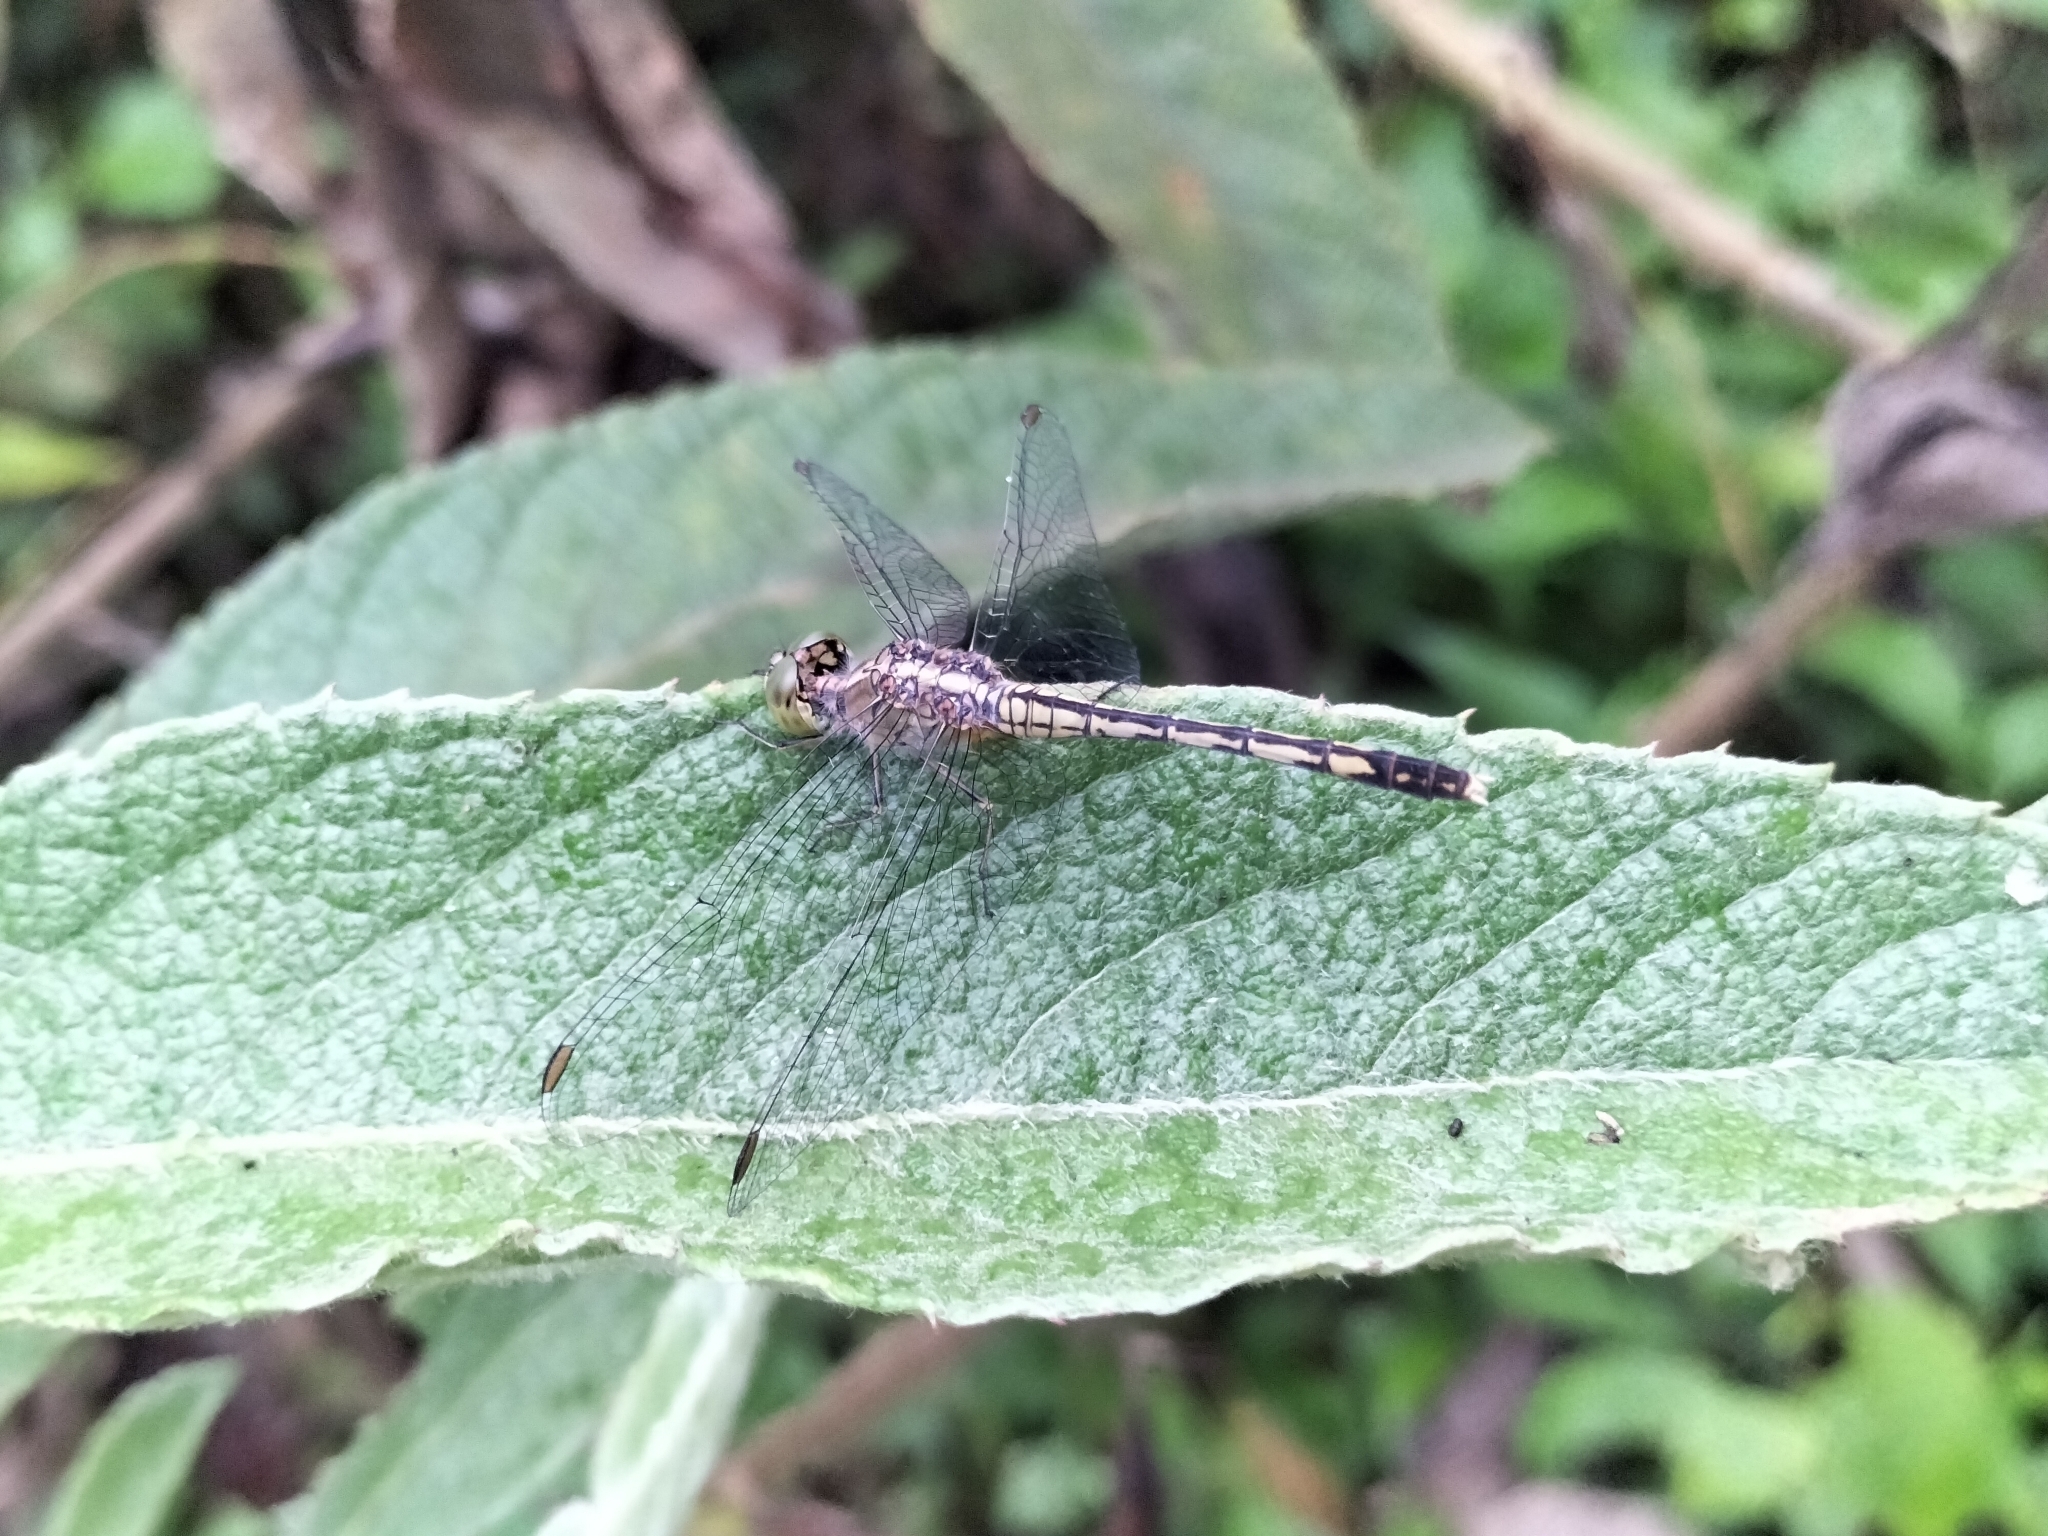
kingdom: Animalia
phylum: Arthropoda
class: Insecta
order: Odonata
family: Libellulidae
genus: Diplacodes
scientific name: Diplacodes trivialis
